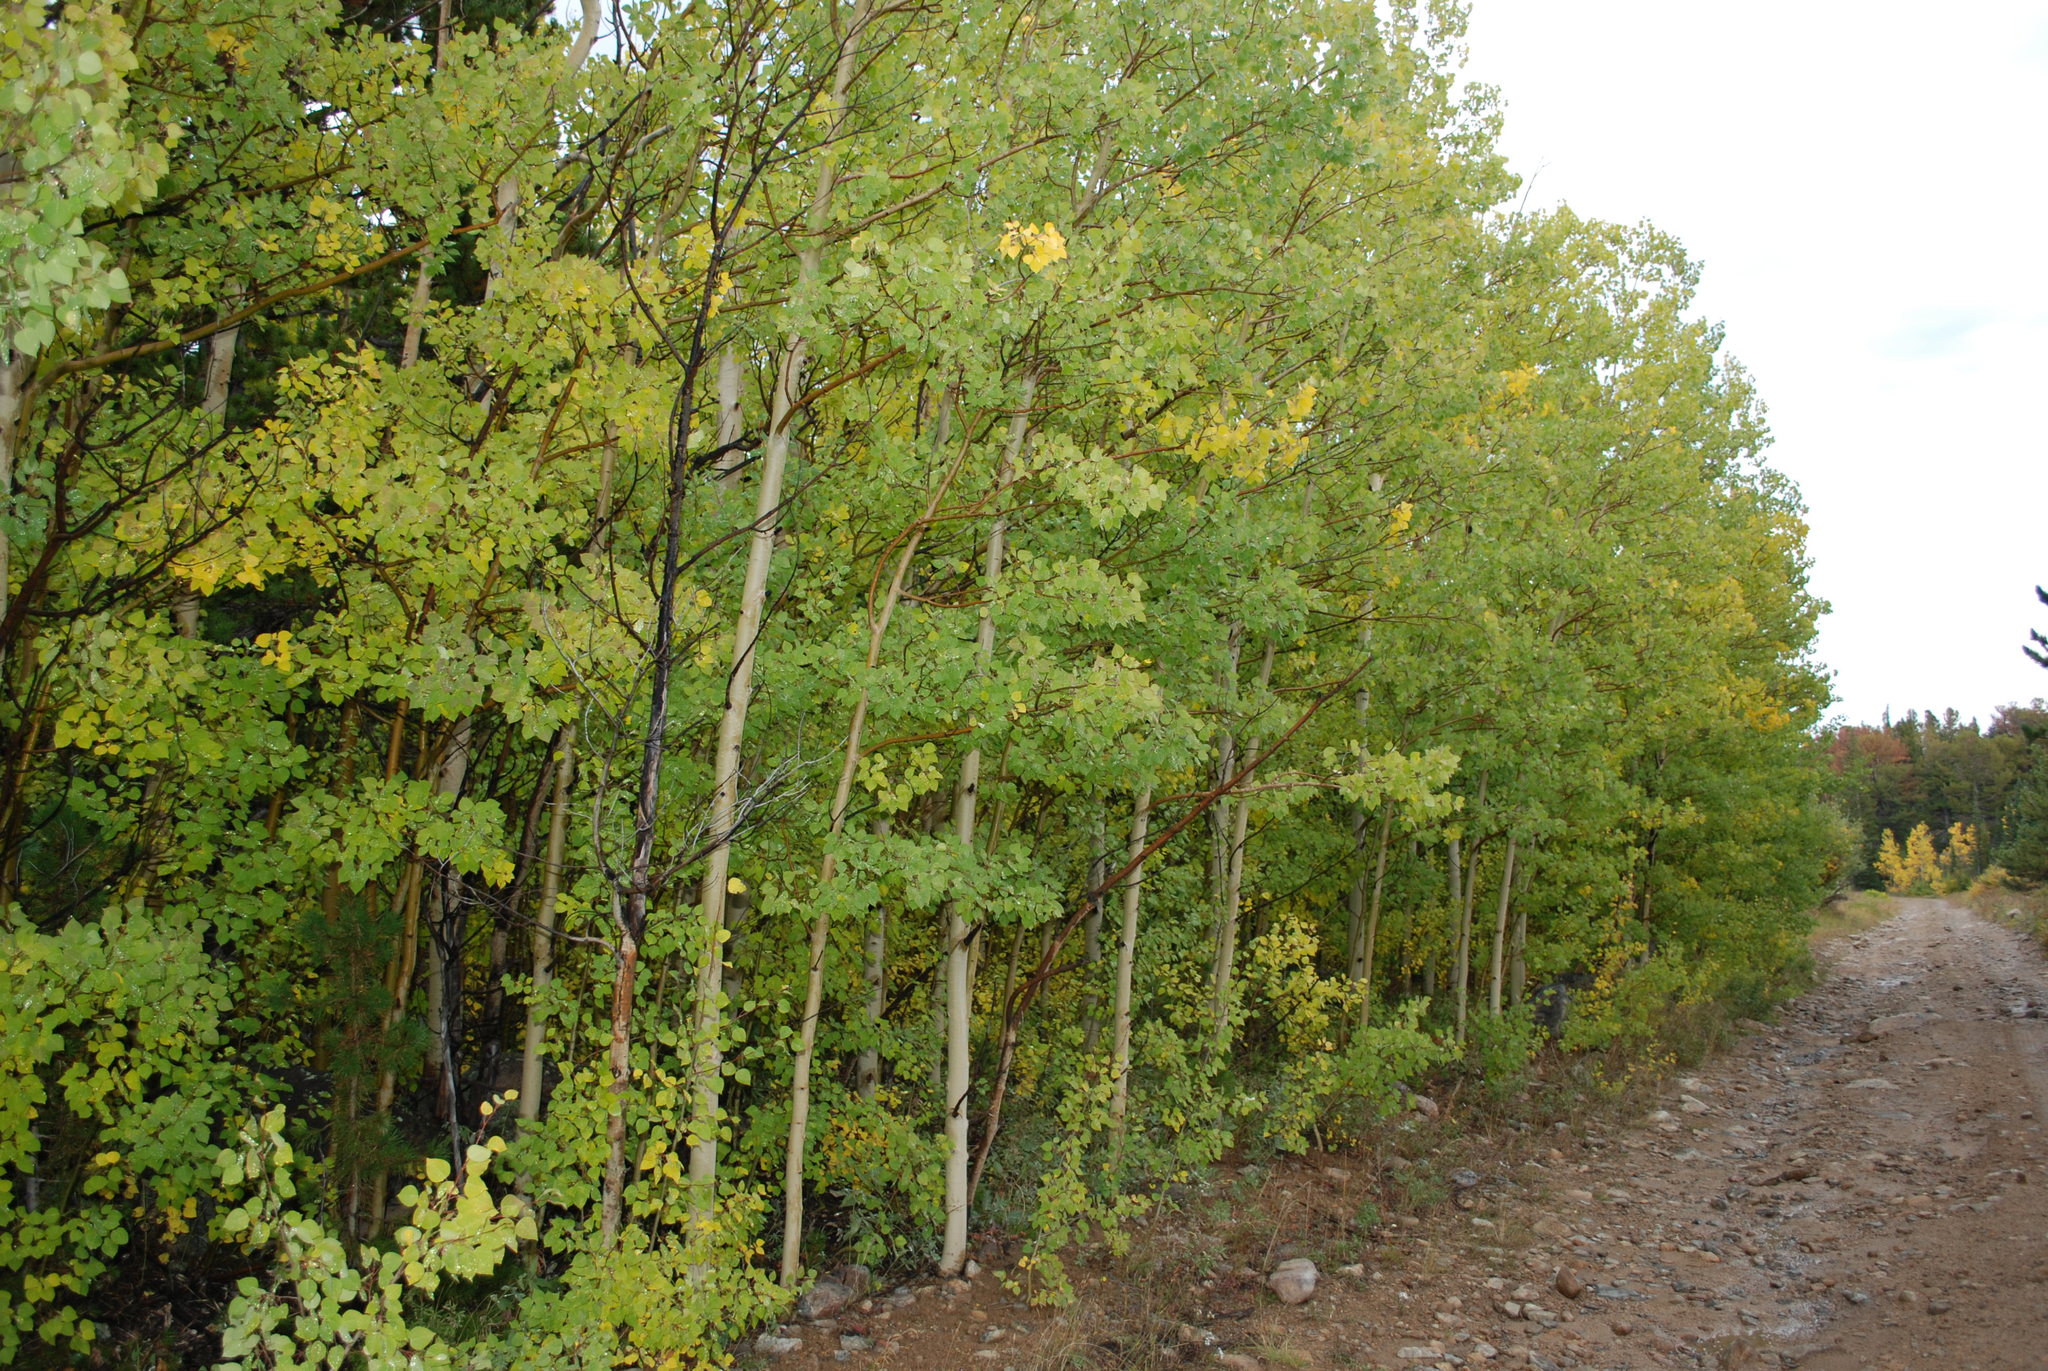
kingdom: Plantae
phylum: Tracheophyta
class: Magnoliopsida
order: Malpighiales
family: Salicaceae
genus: Populus
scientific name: Populus tremuloides
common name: Quaking aspen
